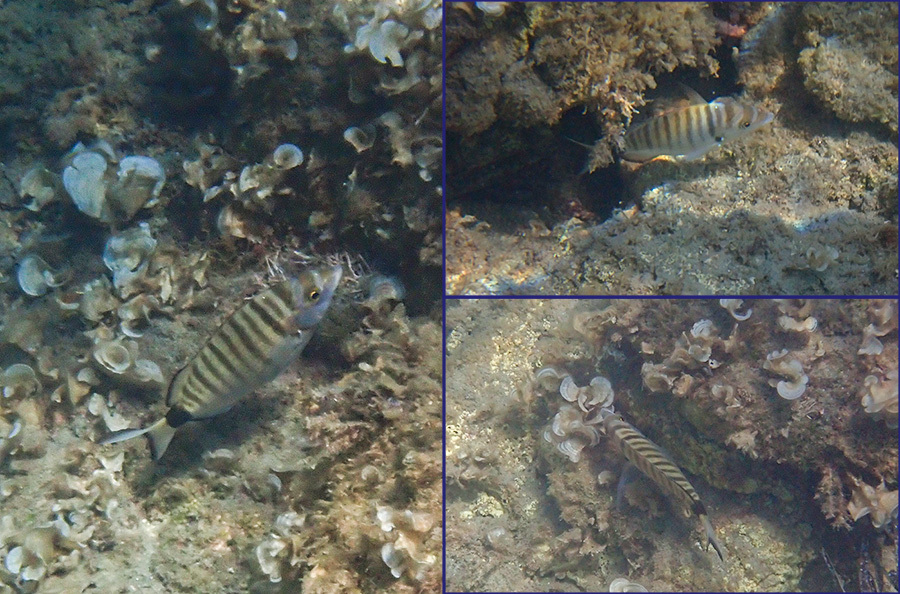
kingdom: Animalia
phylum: Chordata
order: Perciformes
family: Sparidae
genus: Diplodus
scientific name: Diplodus puntazzo
